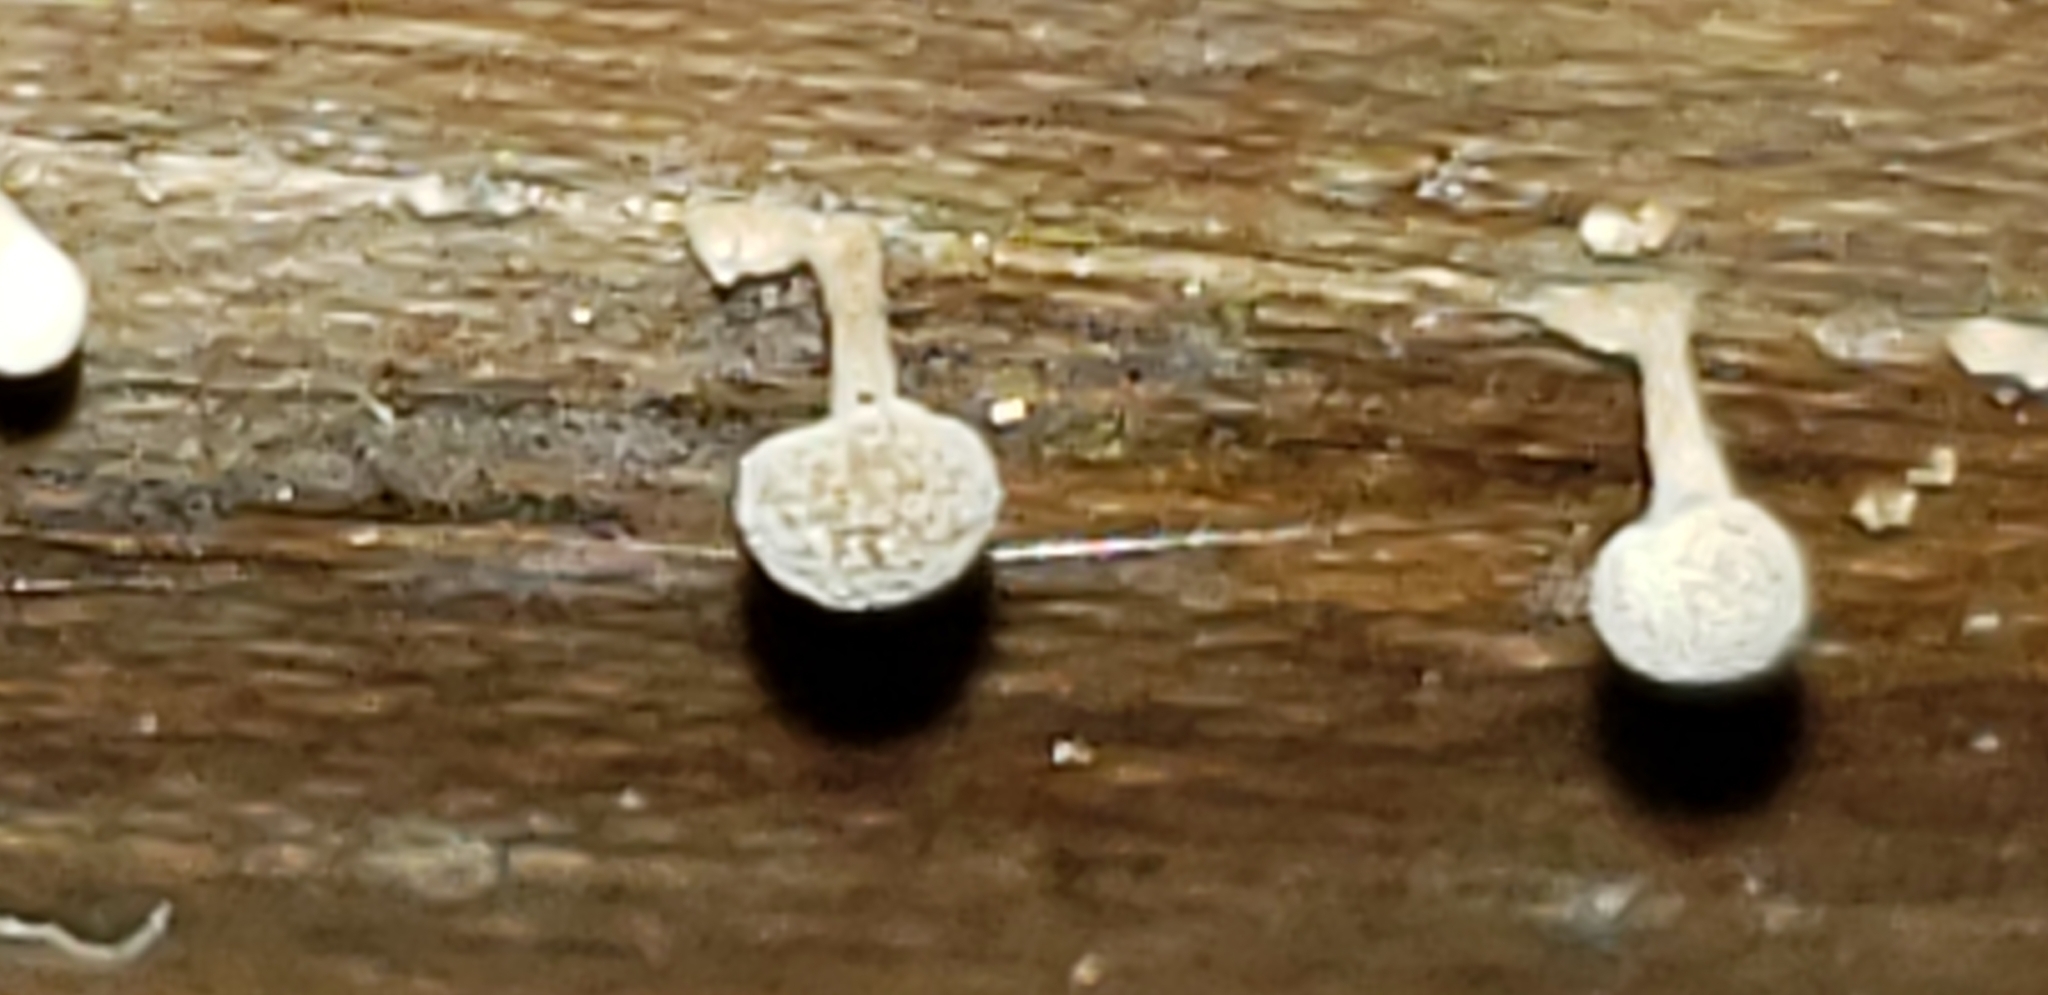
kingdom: Fungi
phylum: Basidiomycota
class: Atractiellomycetes
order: Atractiellales
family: Phleogenaceae
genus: Phleogena
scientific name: Phleogena faginea
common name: Fenugreek stalkball
